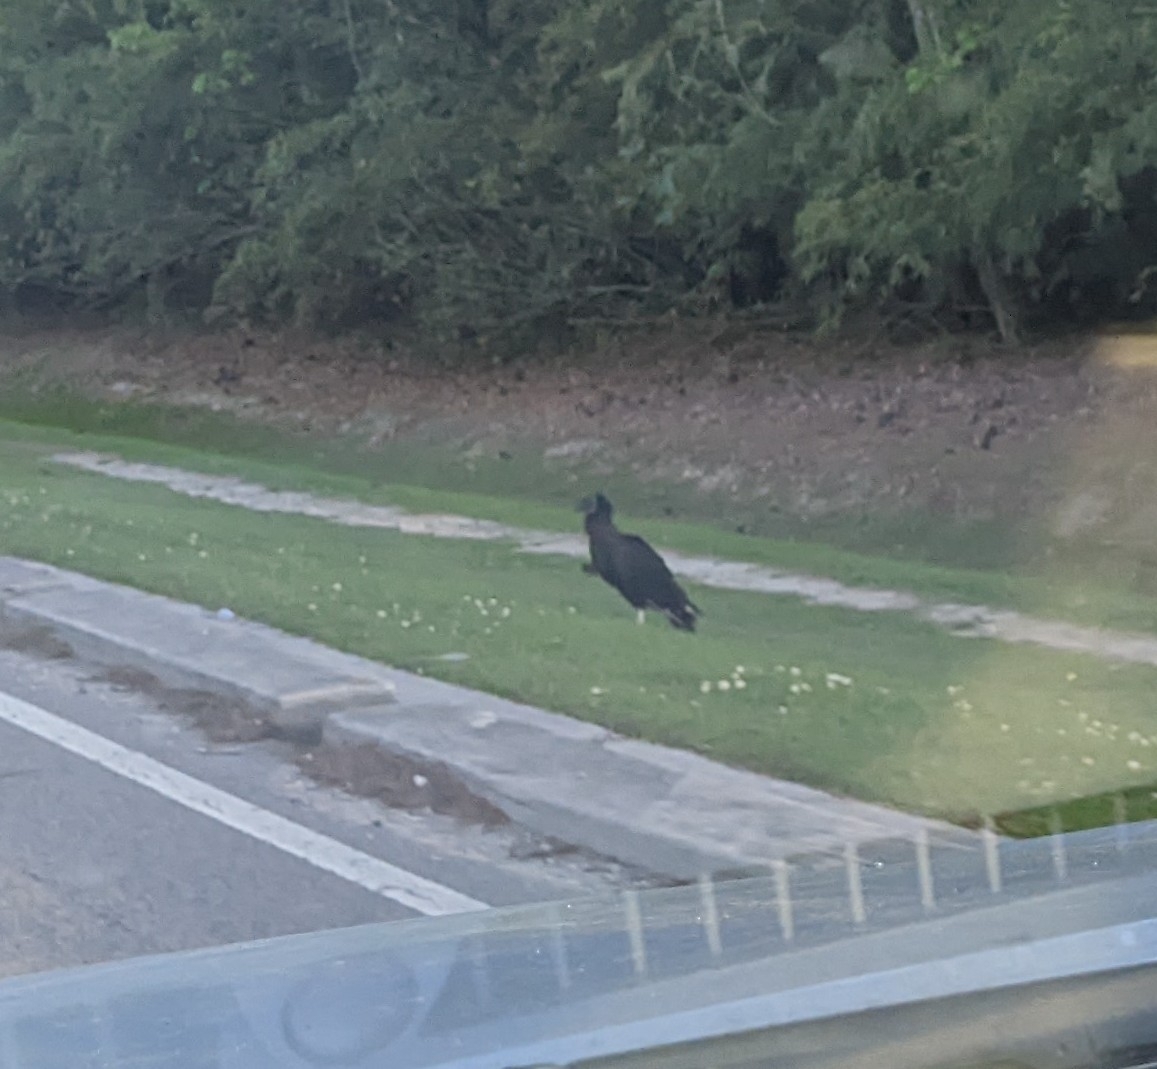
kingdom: Animalia
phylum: Chordata
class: Aves
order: Accipitriformes
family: Cathartidae
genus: Coragyps
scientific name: Coragyps atratus
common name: Black vulture
